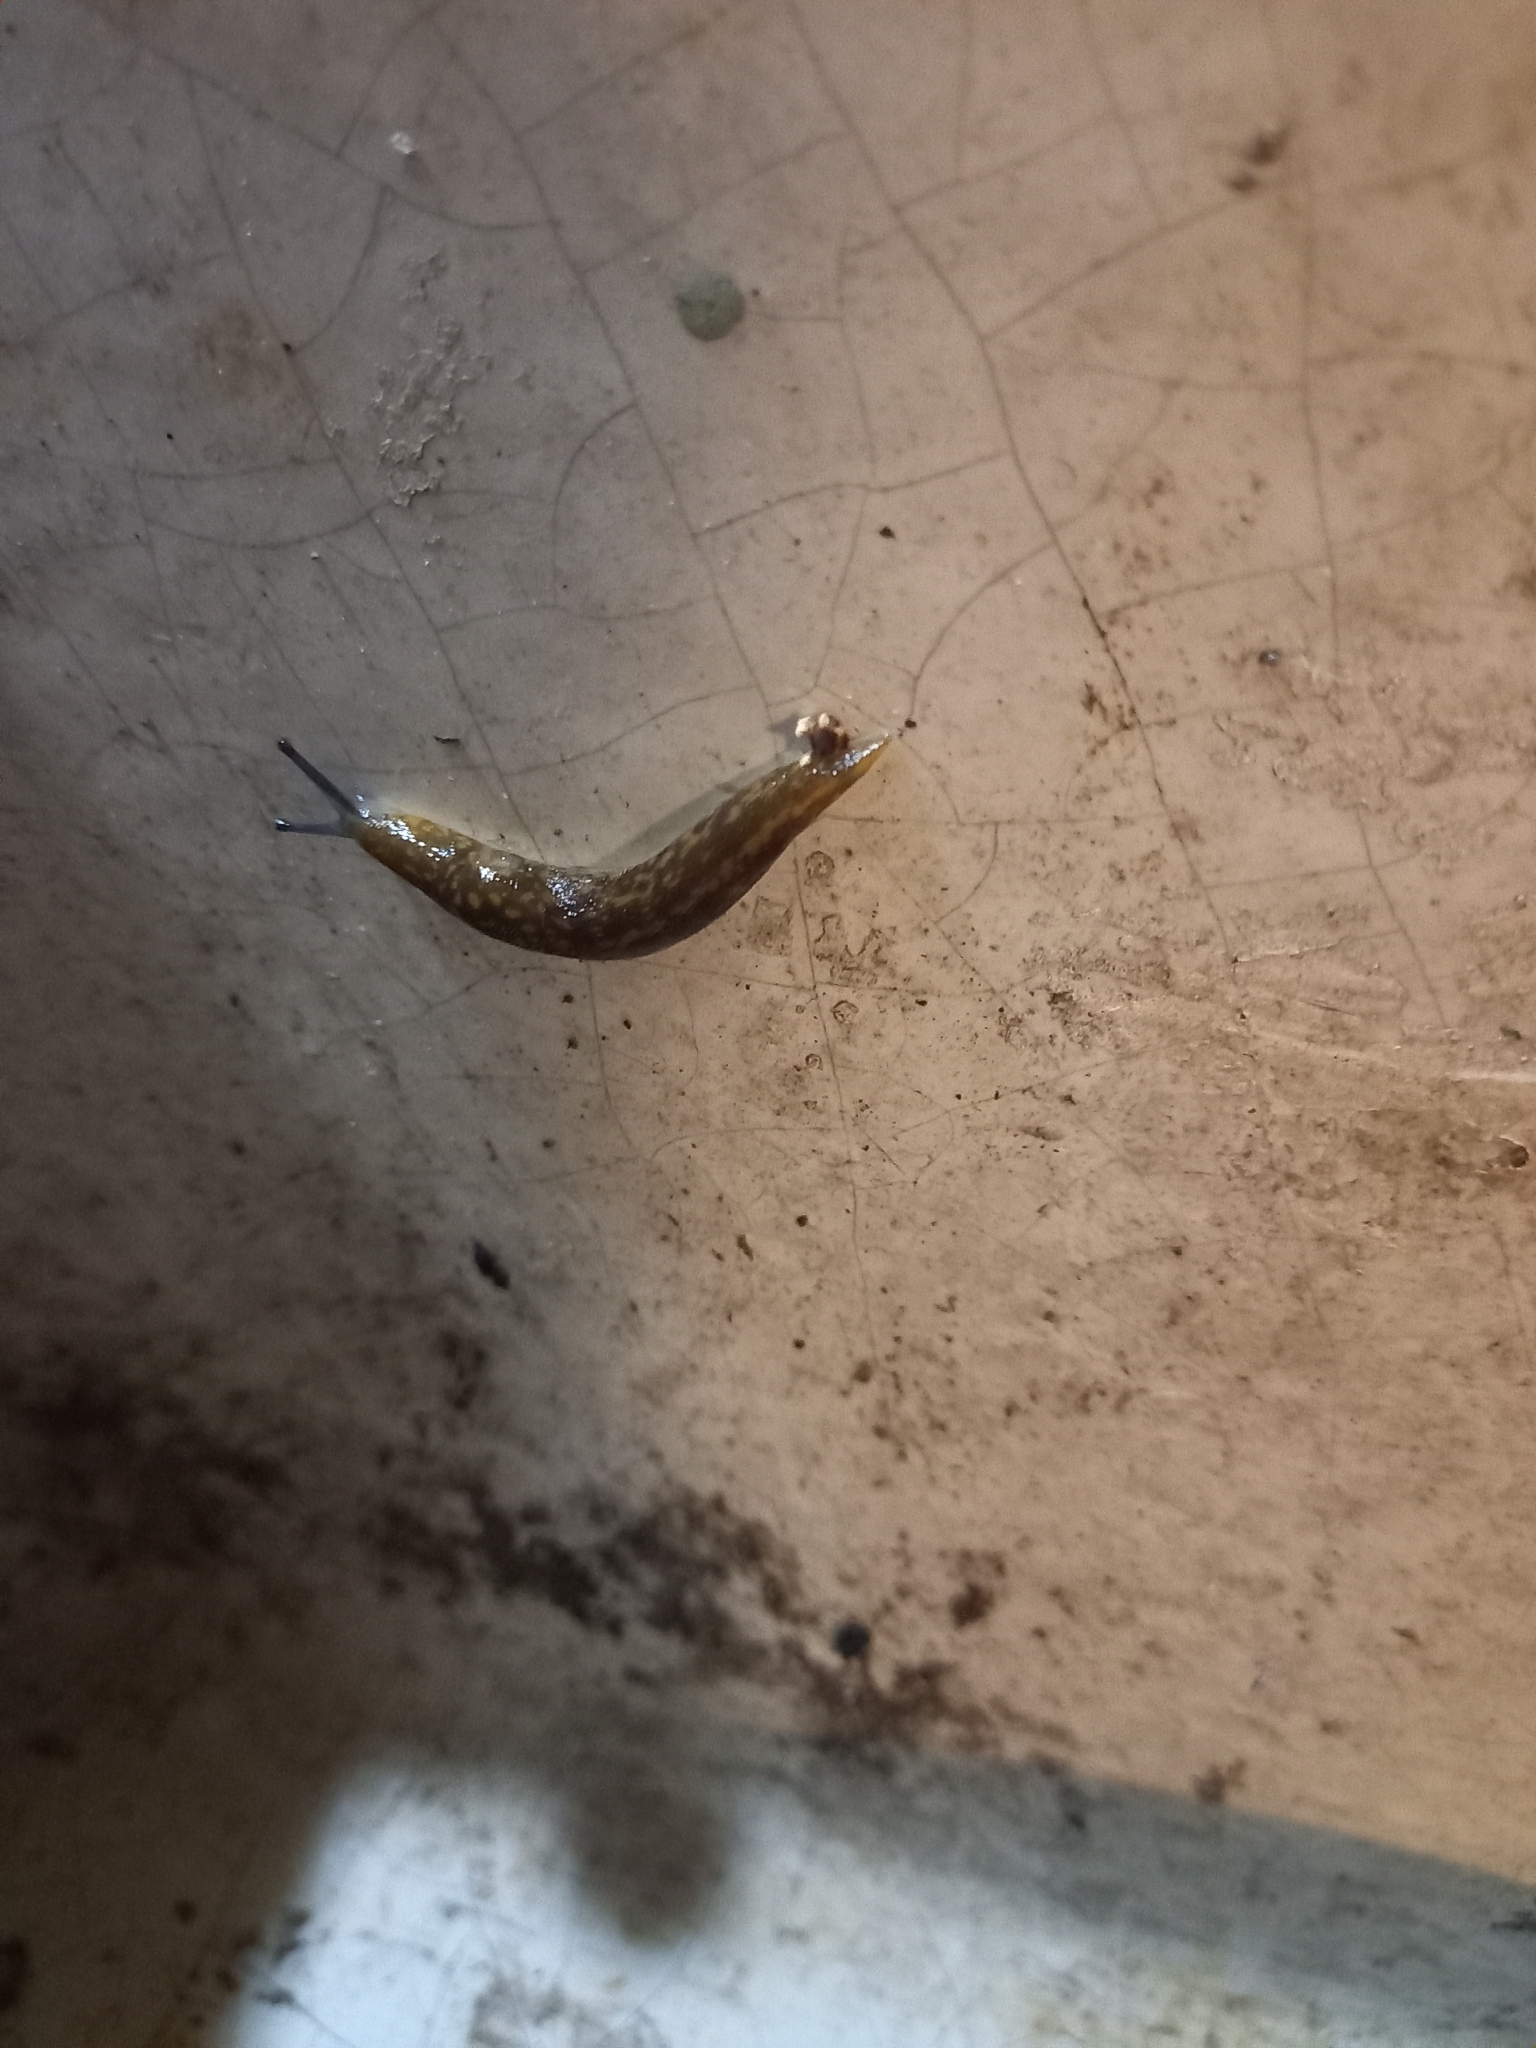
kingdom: Animalia
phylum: Mollusca
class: Gastropoda
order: Stylommatophora
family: Limacidae
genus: Limacus
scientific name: Limacus flavus
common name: Yellow gardenslug
